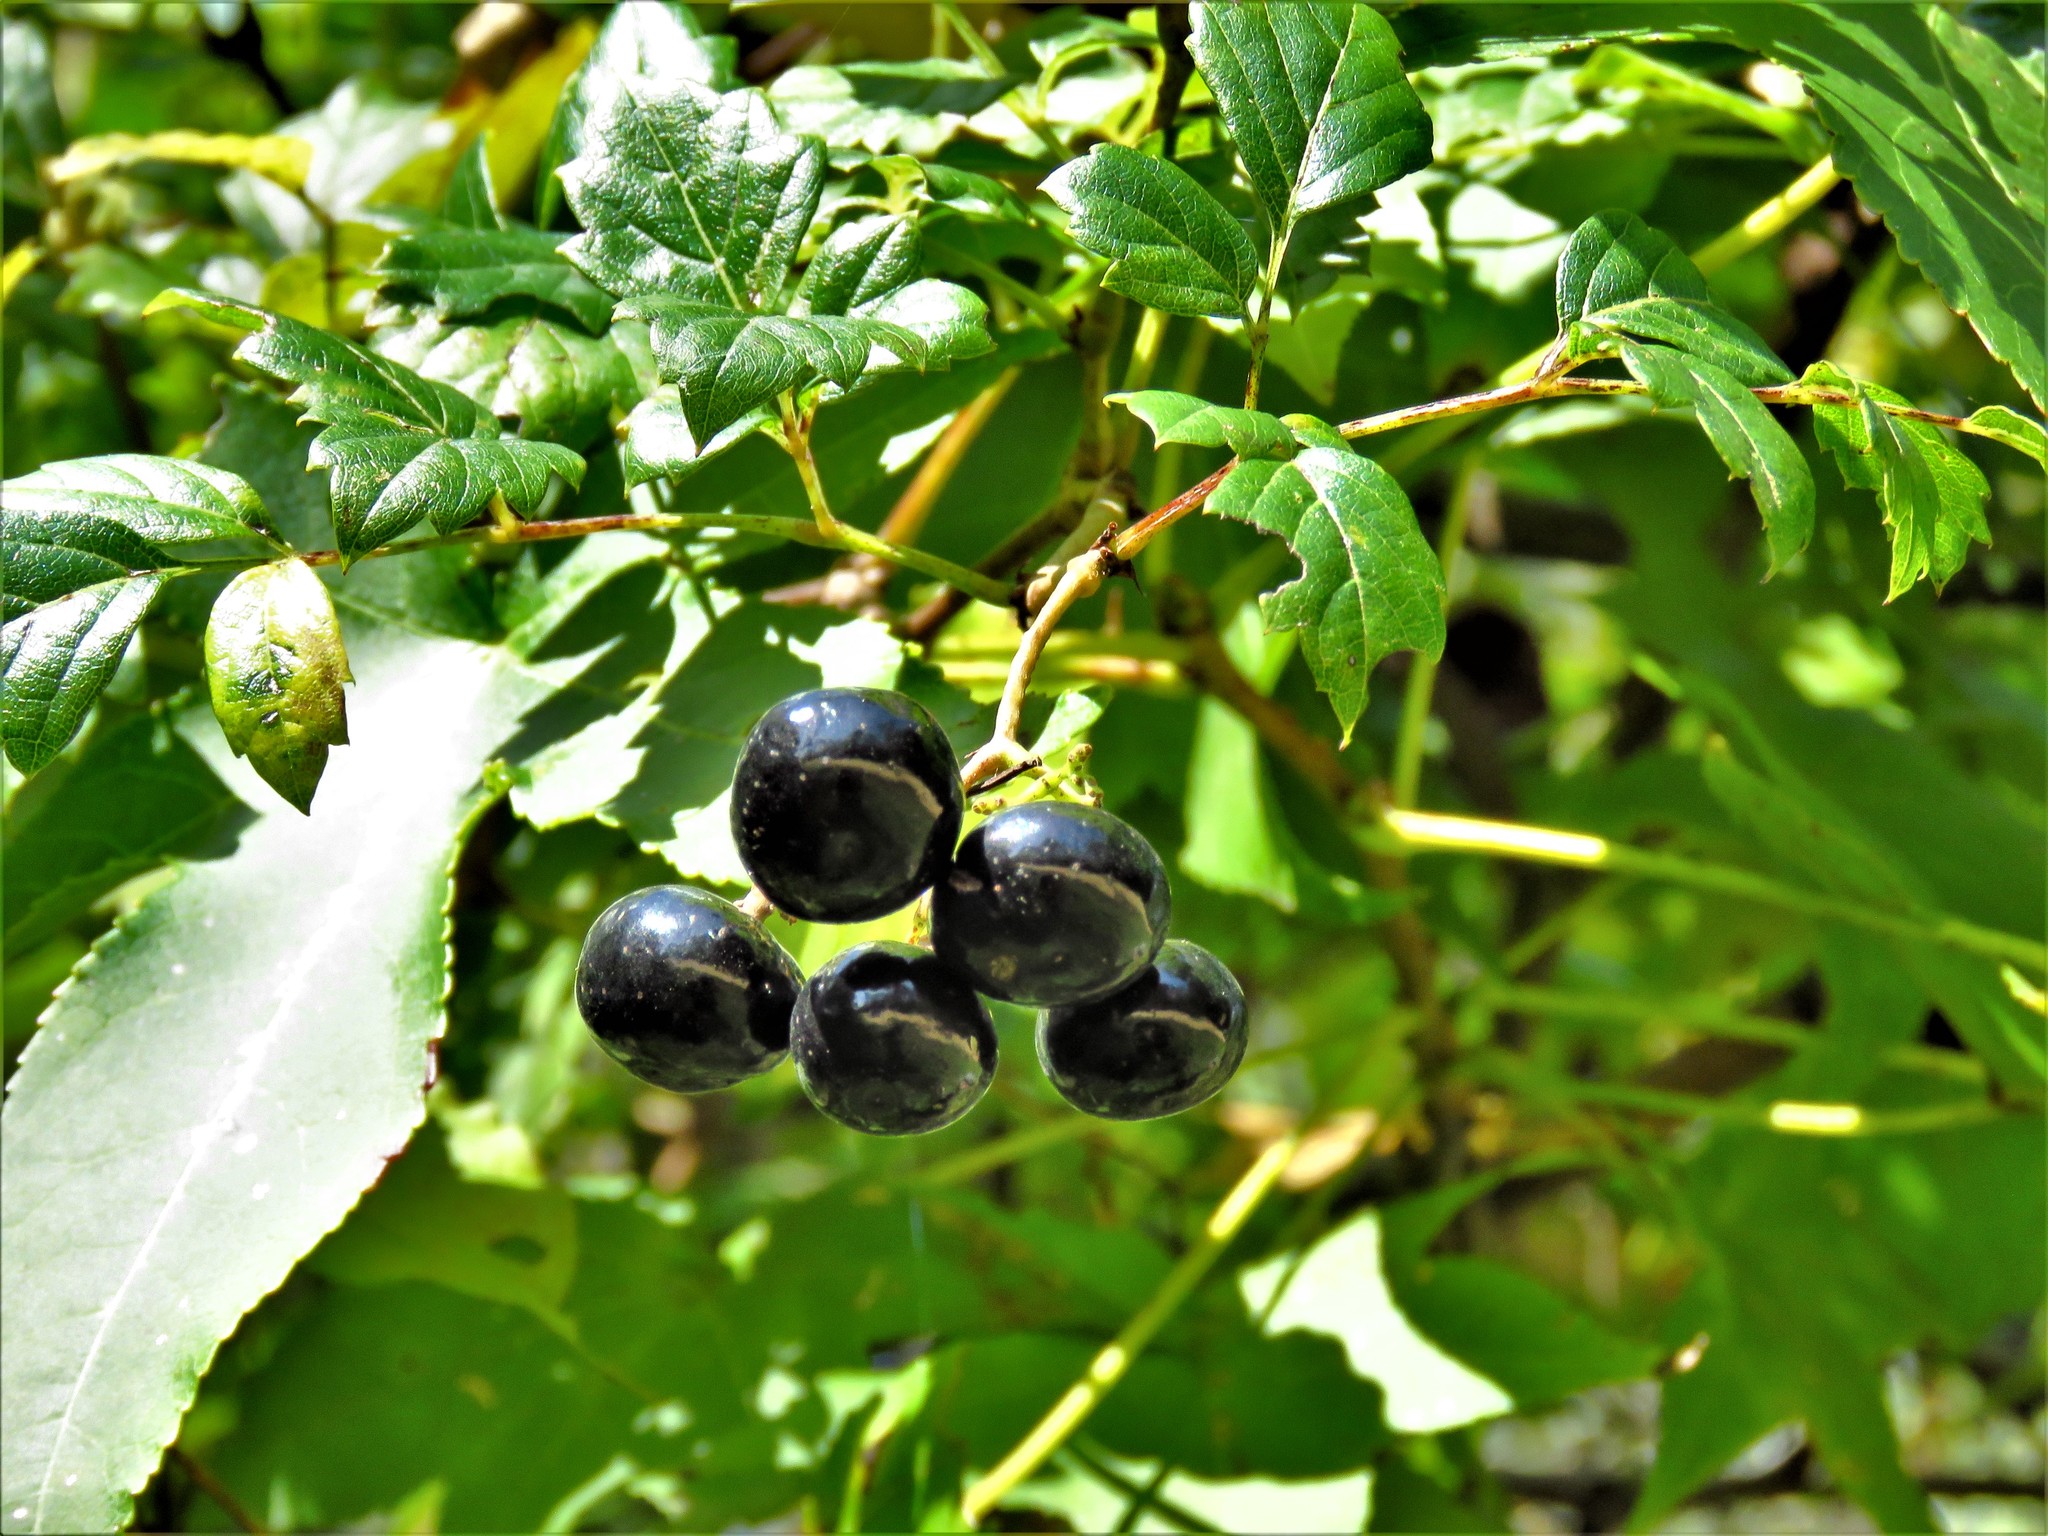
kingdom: Plantae
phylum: Tracheophyta
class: Magnoliopsida
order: Vitales
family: Vitaceae
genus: Nekemias
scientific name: Nekemias arborea
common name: Peppervine
